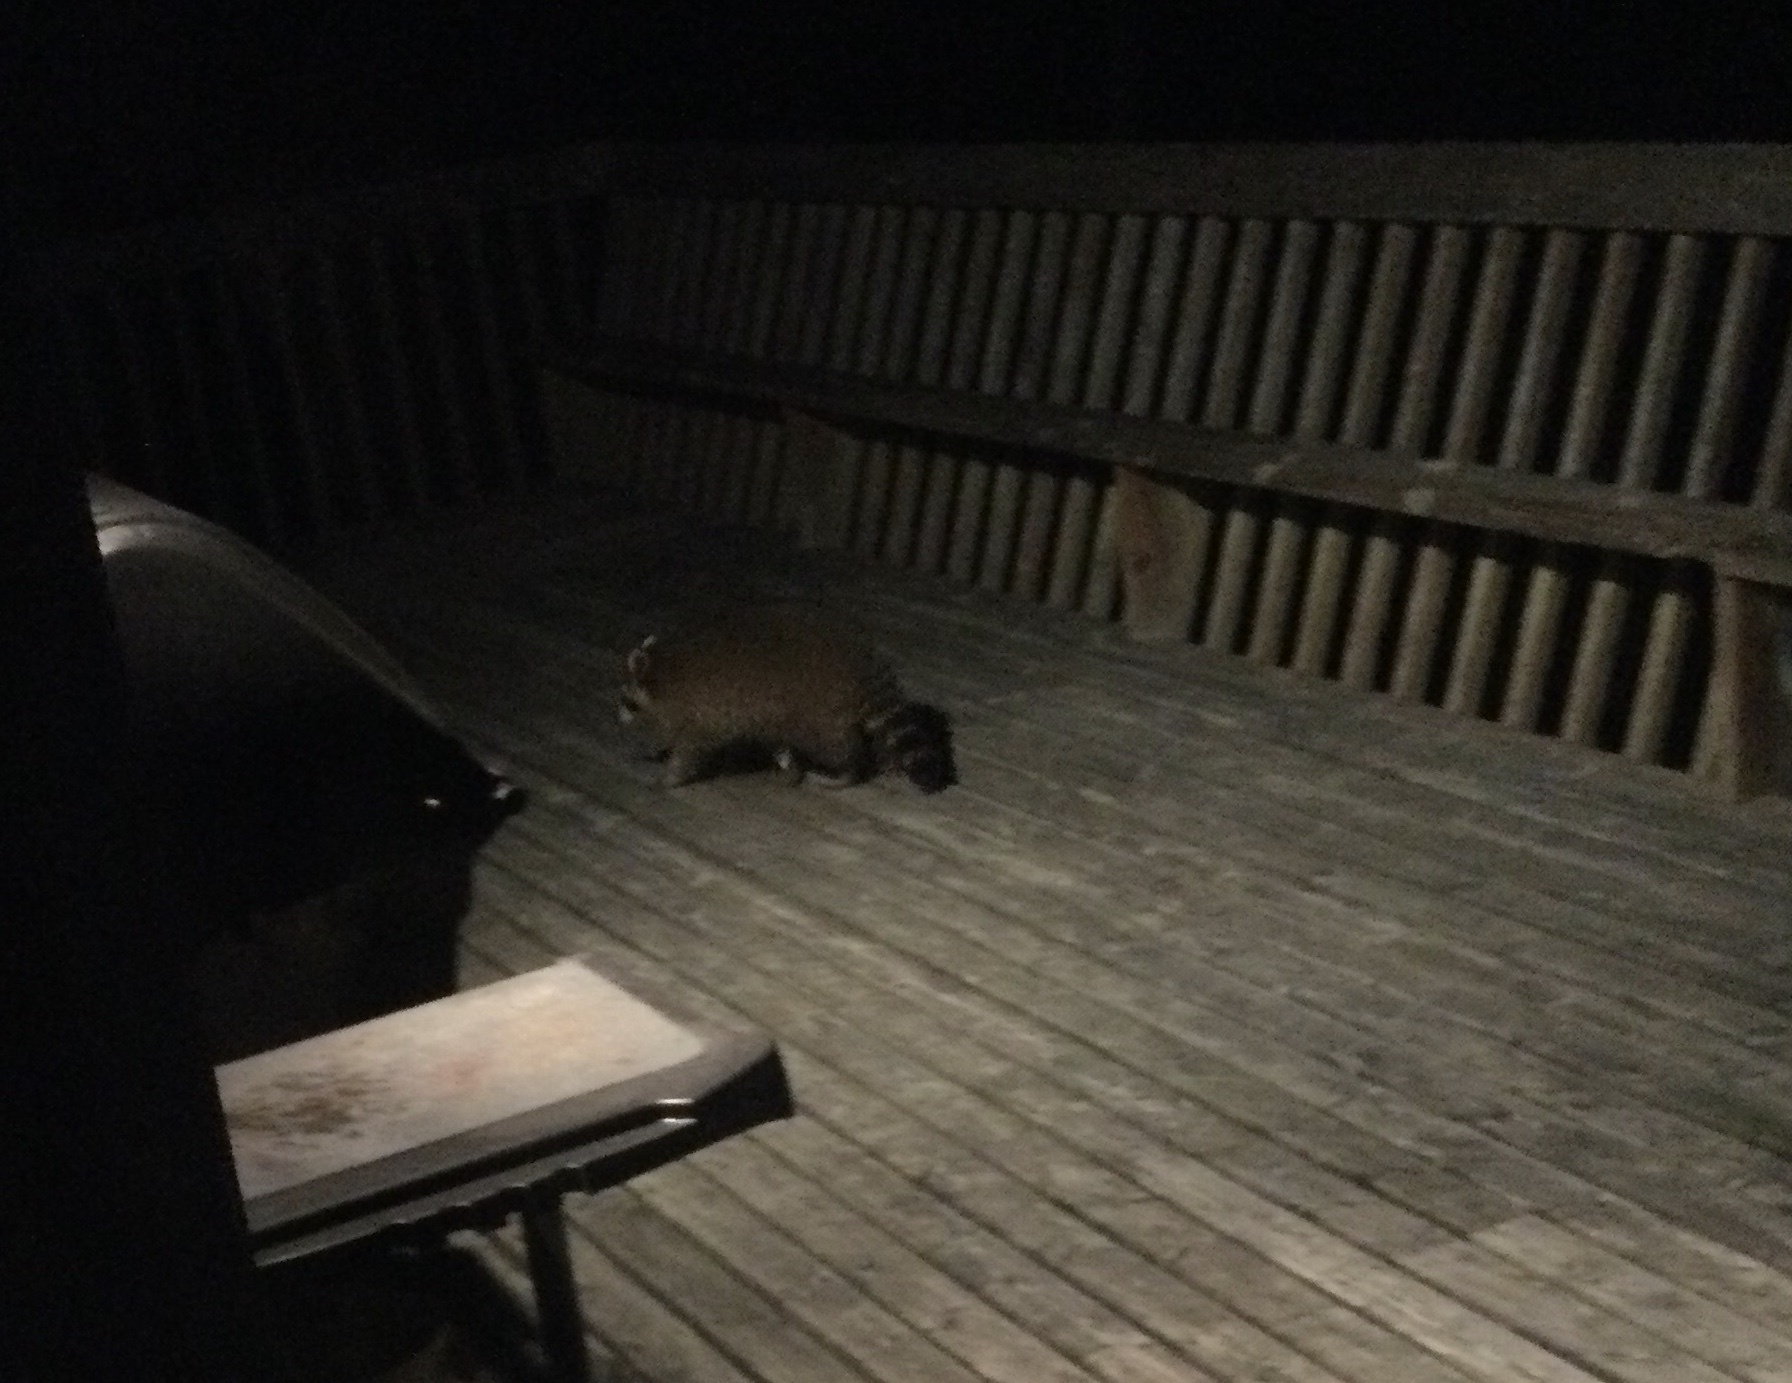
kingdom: Animalia
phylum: Chordata
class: Mammalia
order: Carnivora
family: Procyonidae
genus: Procyon
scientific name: Procyon lotor
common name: Raccoon
